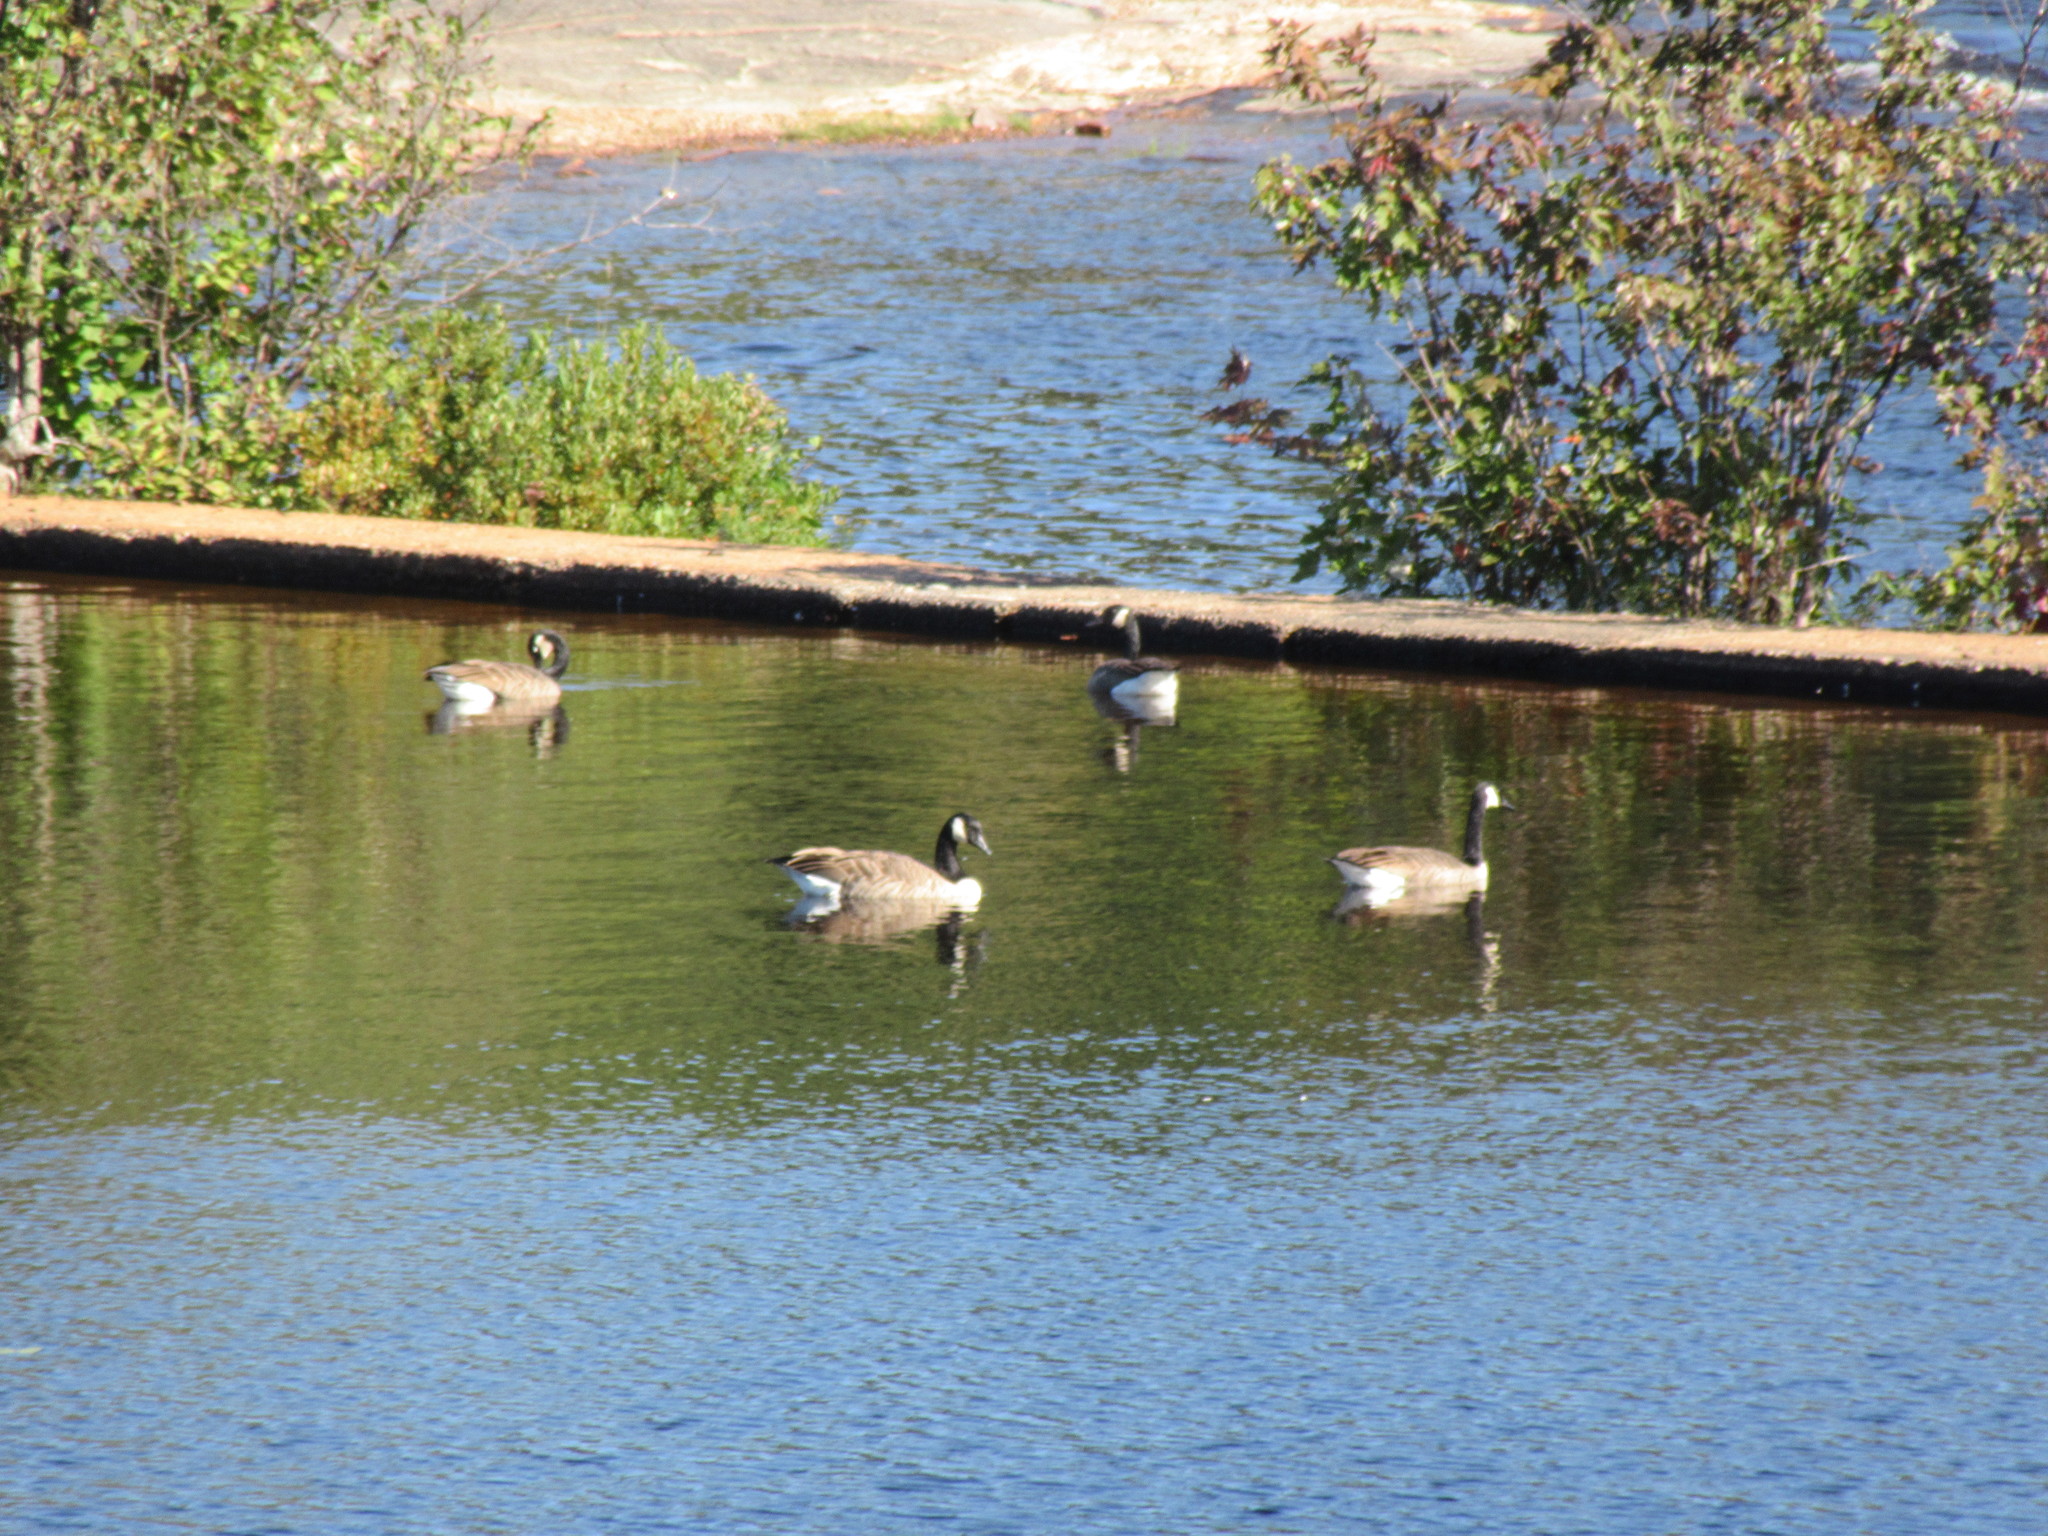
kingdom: Animalia
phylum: Chordata
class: Aves
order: Anseriformes
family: Anatidae
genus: Branta
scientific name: Branta canadensis
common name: Canada goose
